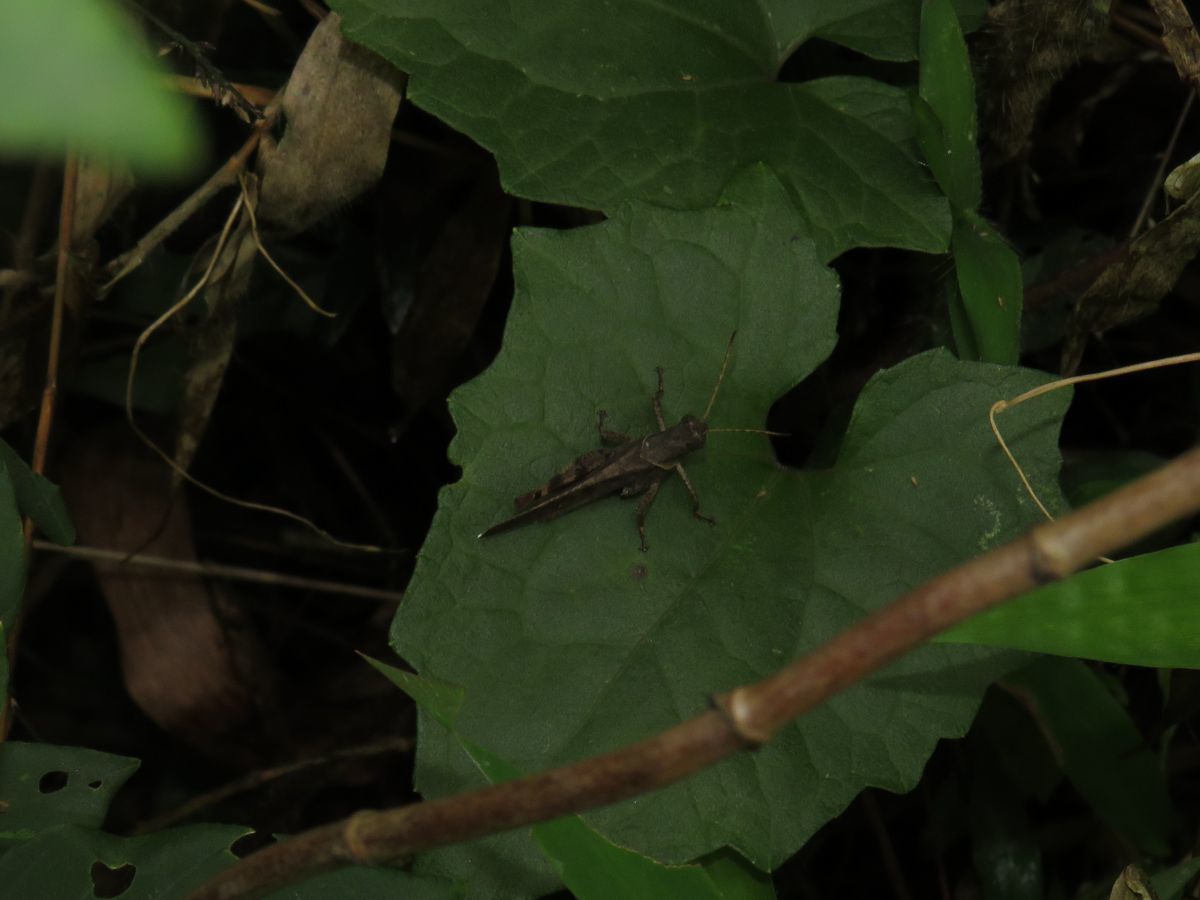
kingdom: Animalia
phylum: Arthropoda
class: Insecta
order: Orthoptera
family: Acrididae
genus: Eucoptacra
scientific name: Eucoptacra binghami
